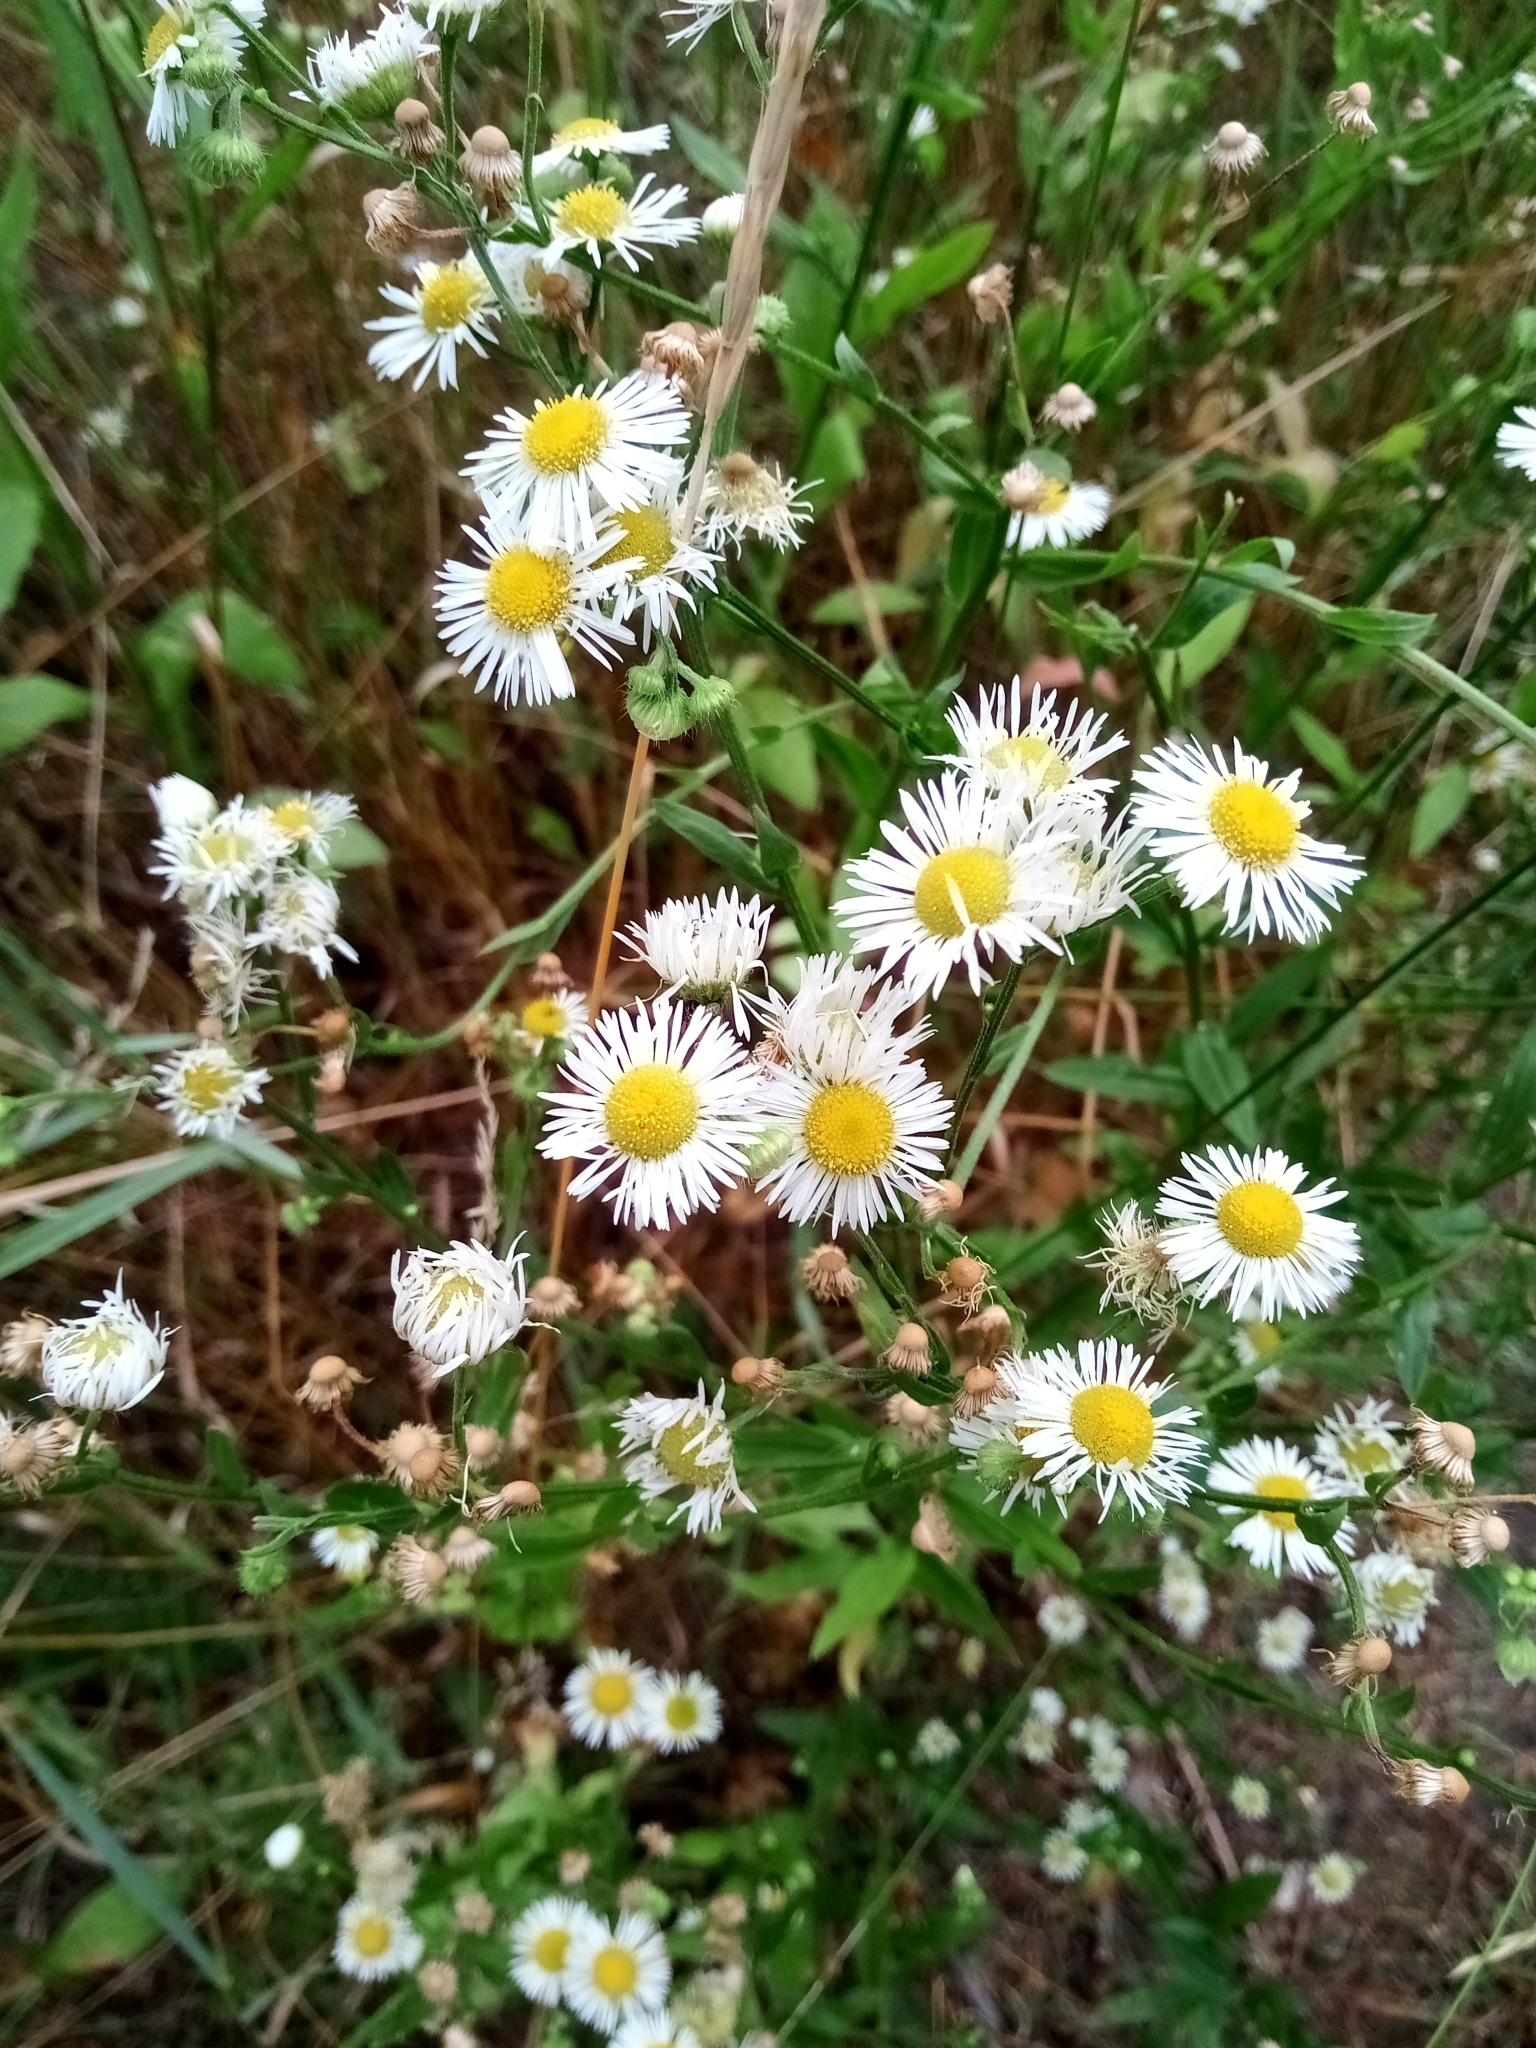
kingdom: Plantae
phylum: Tracheophyta
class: Magnoliopsida
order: Asterales
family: Asteraceae
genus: Erigeron
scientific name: Erigeron annuus
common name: Tall fleabane
